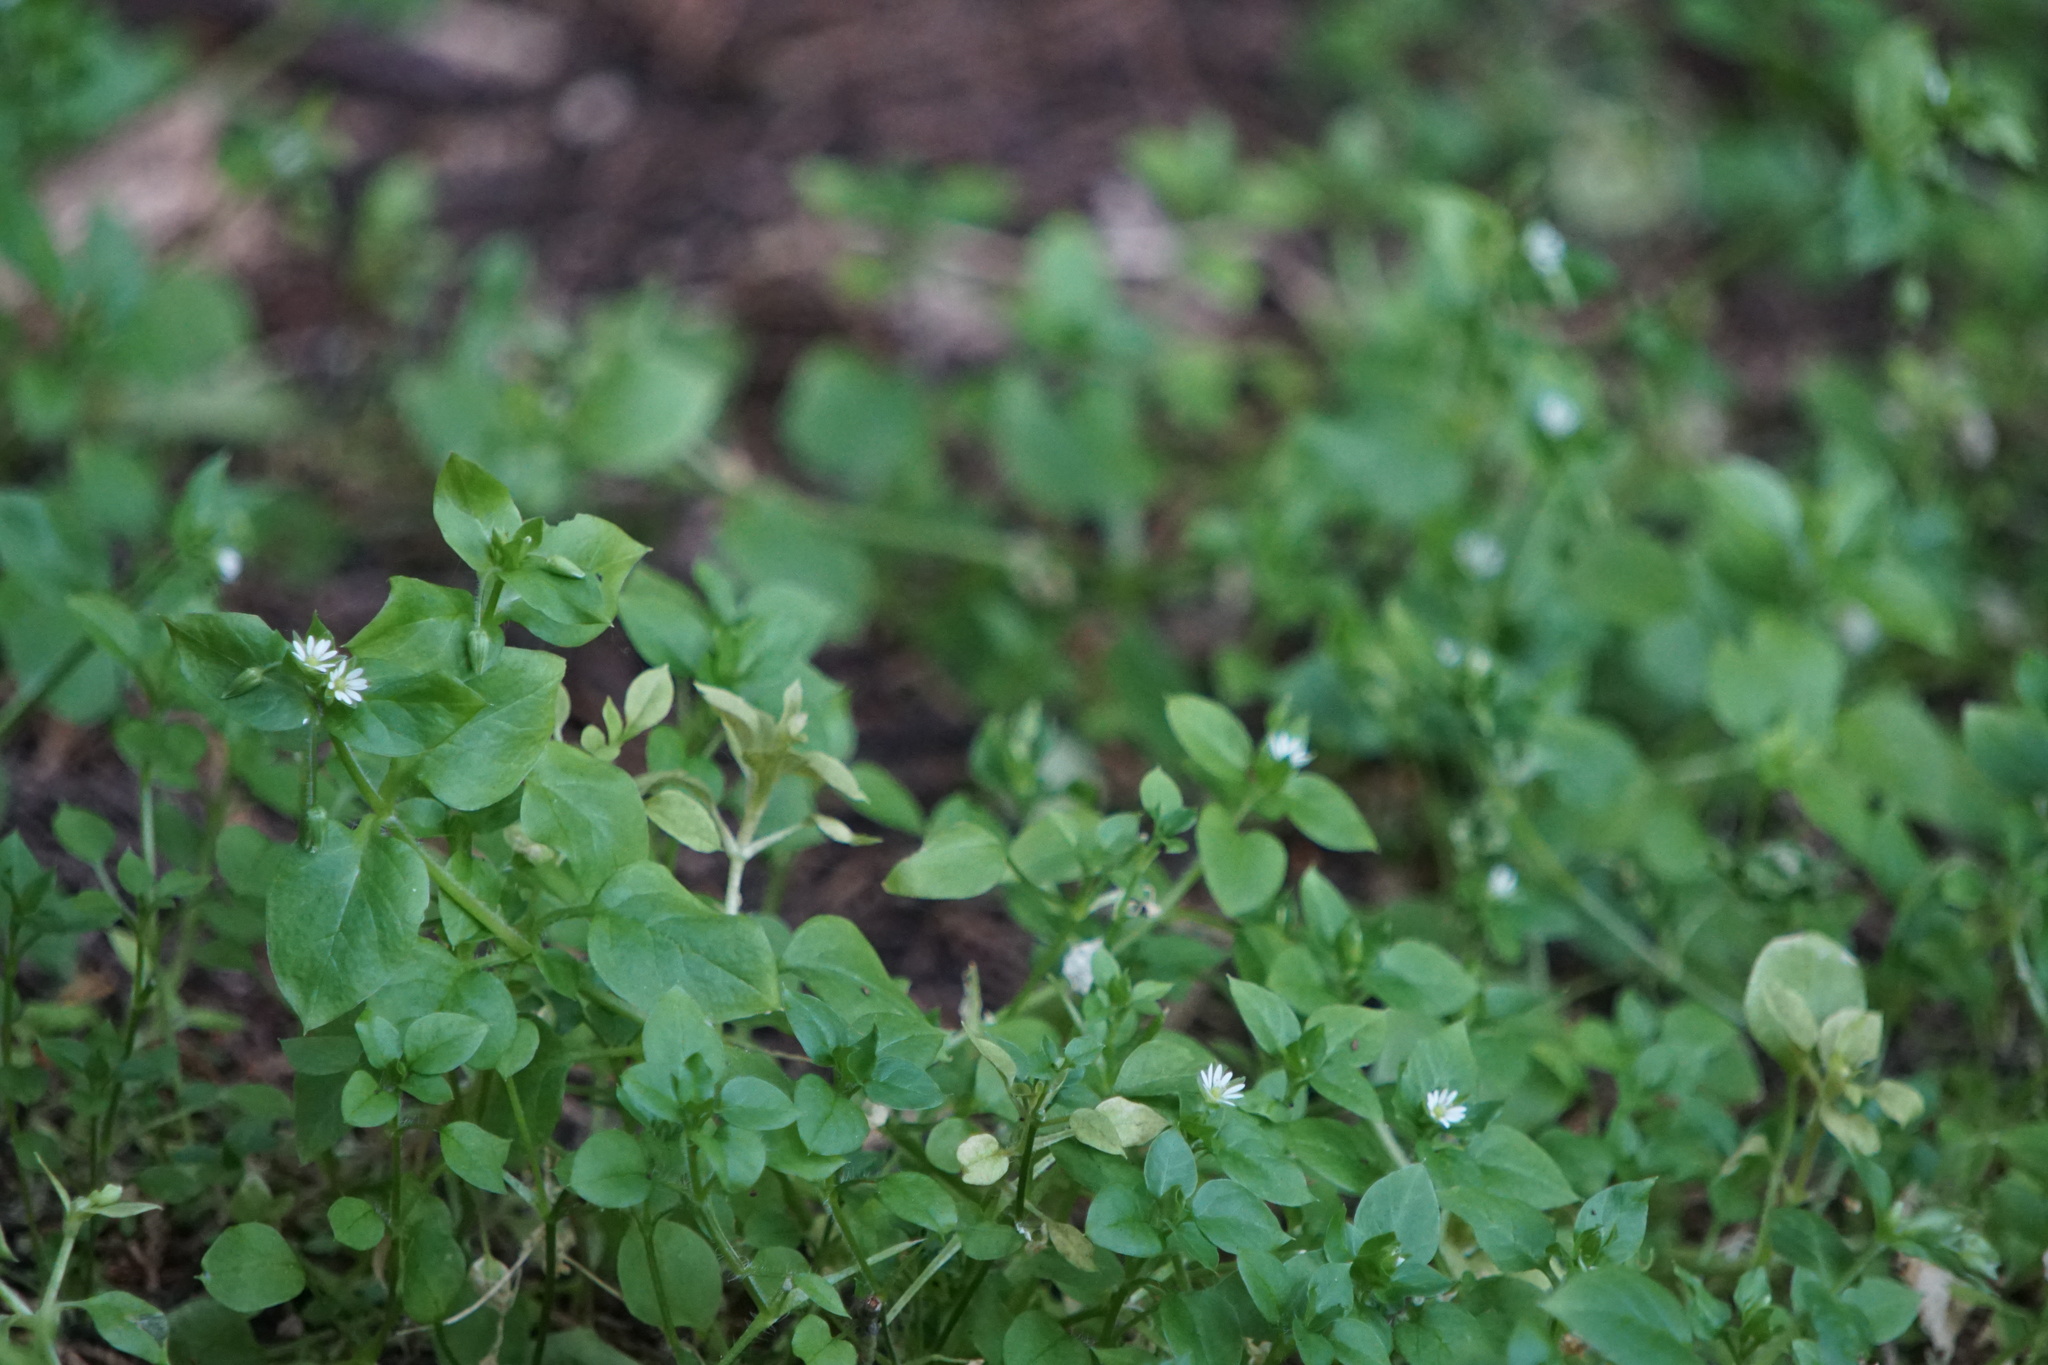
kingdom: Plantae
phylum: Tracheophyta
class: Magnoliopsida
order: Caryophyllales
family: Caryophyllaceae
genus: Stellaria
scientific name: Stellaria media
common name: Common chickweed
